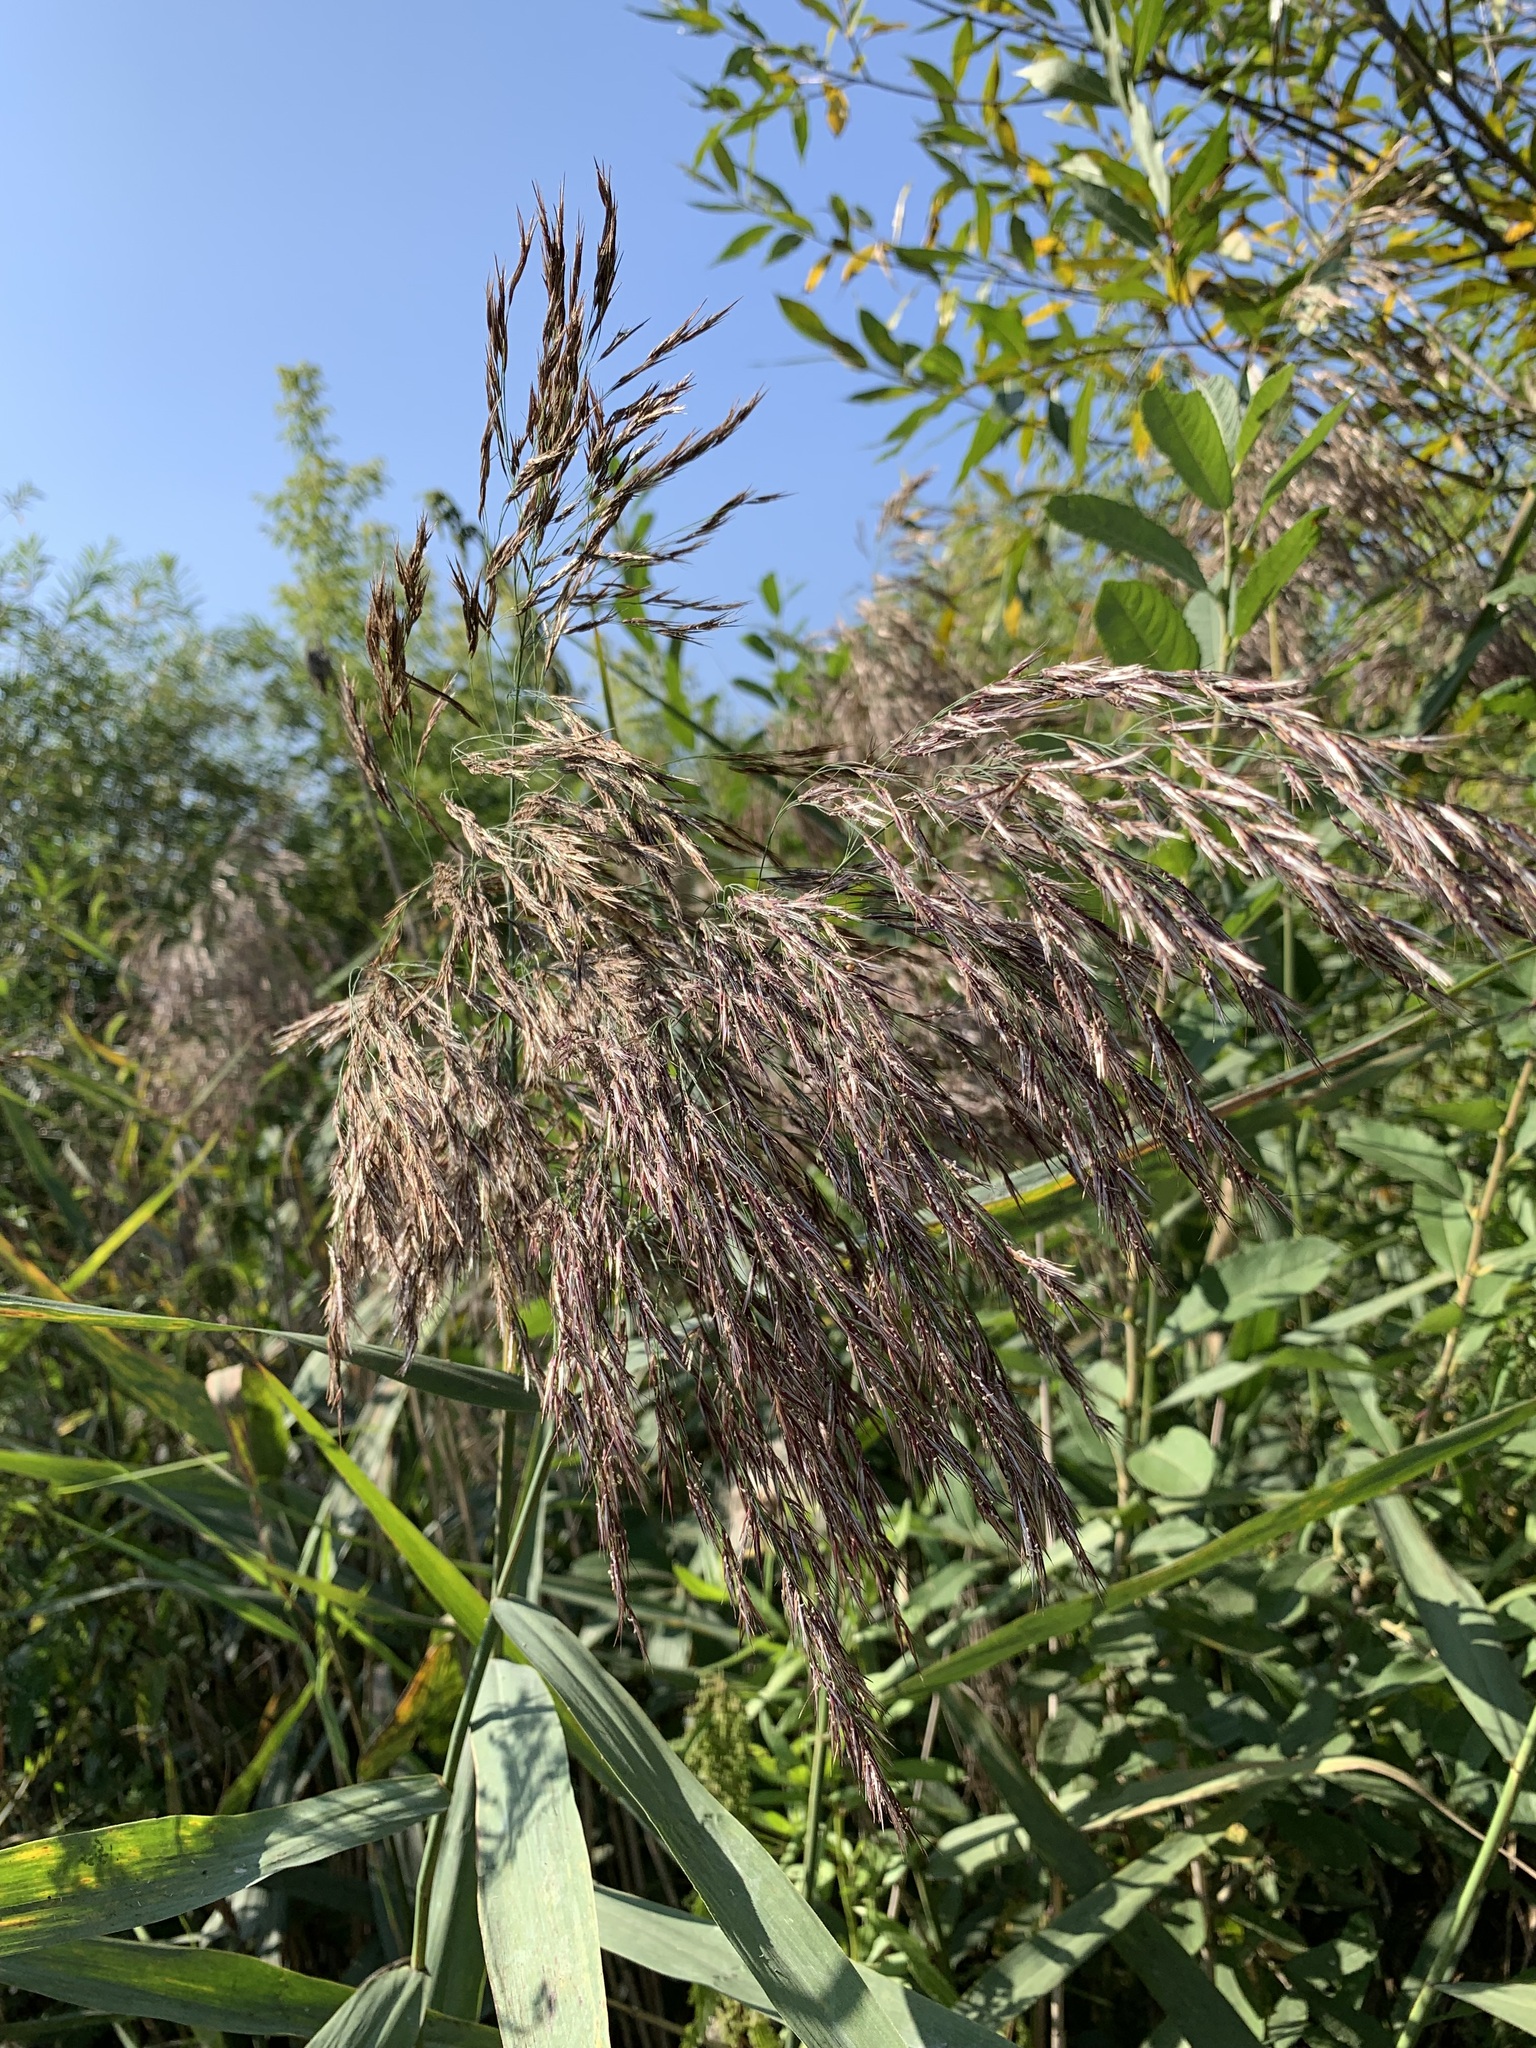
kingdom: Plantae
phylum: Tracheophyta
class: Liliopsida
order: Poales
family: Poaceae
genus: Phragmites
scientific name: Phragmites australis
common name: Common reed
